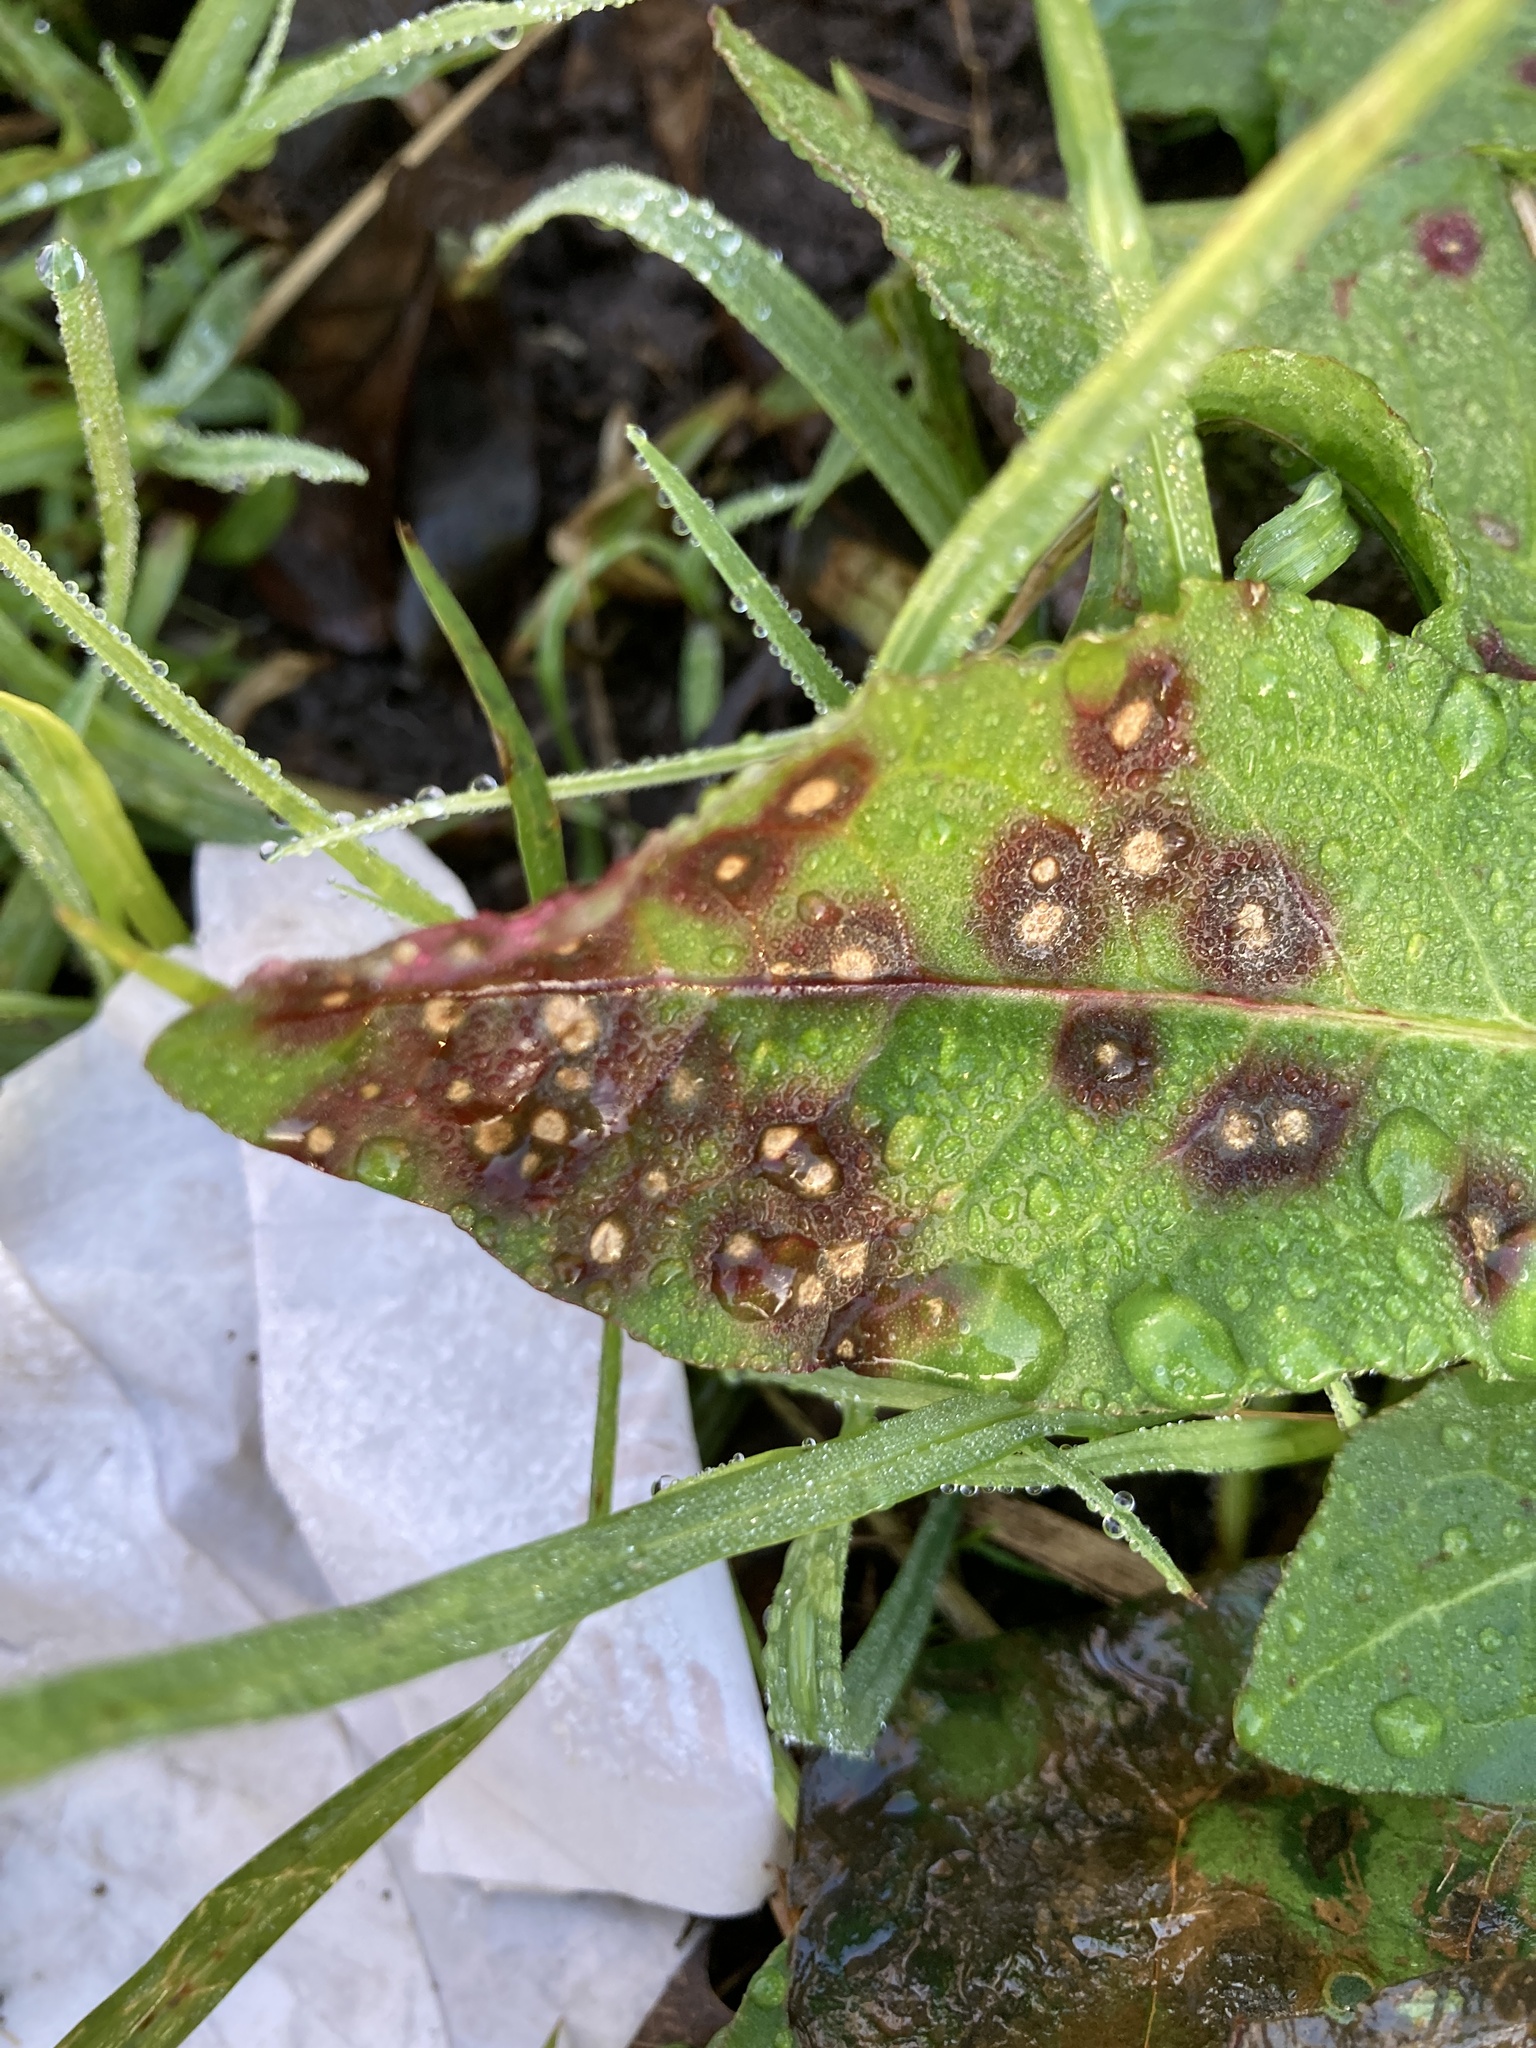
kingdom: Fungi
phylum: Ascomycota
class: Dothideomycetes
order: Mycosphaerellales
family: Mycosphaerellaceae
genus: Ramularia
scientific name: Ramularia rubella
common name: Red dock spot
